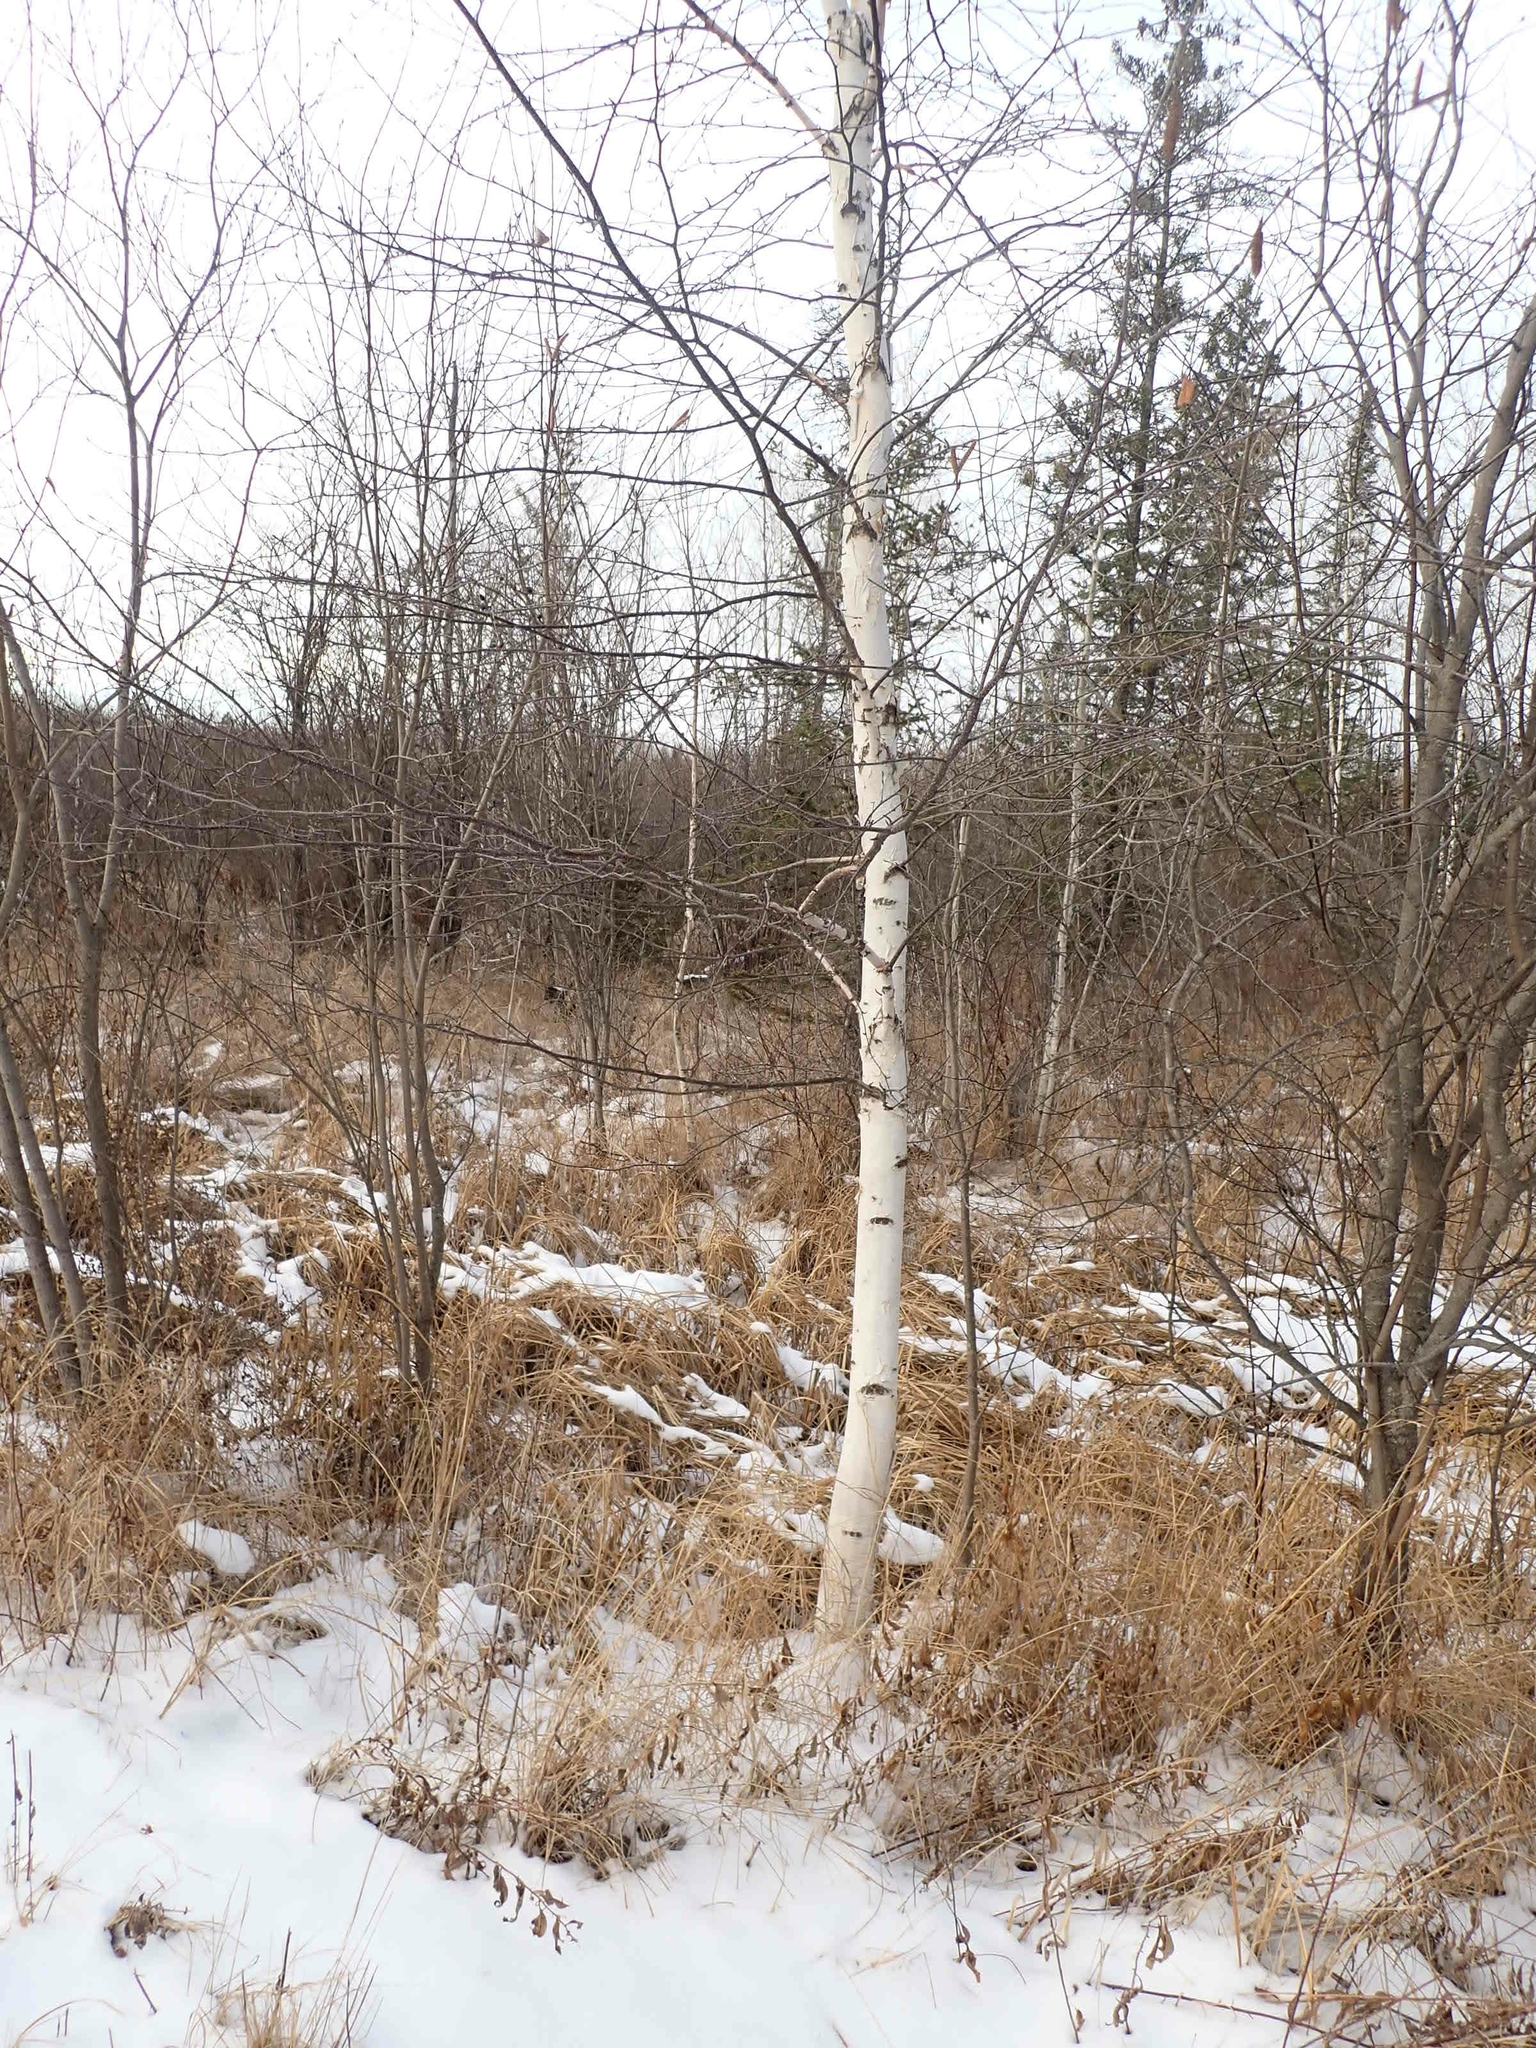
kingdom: Plantae
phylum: Tracheophyta
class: Magnoliopsida
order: Fagales
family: Betulaceae
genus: Betula
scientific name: Betula papyrifera
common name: Paper birch
